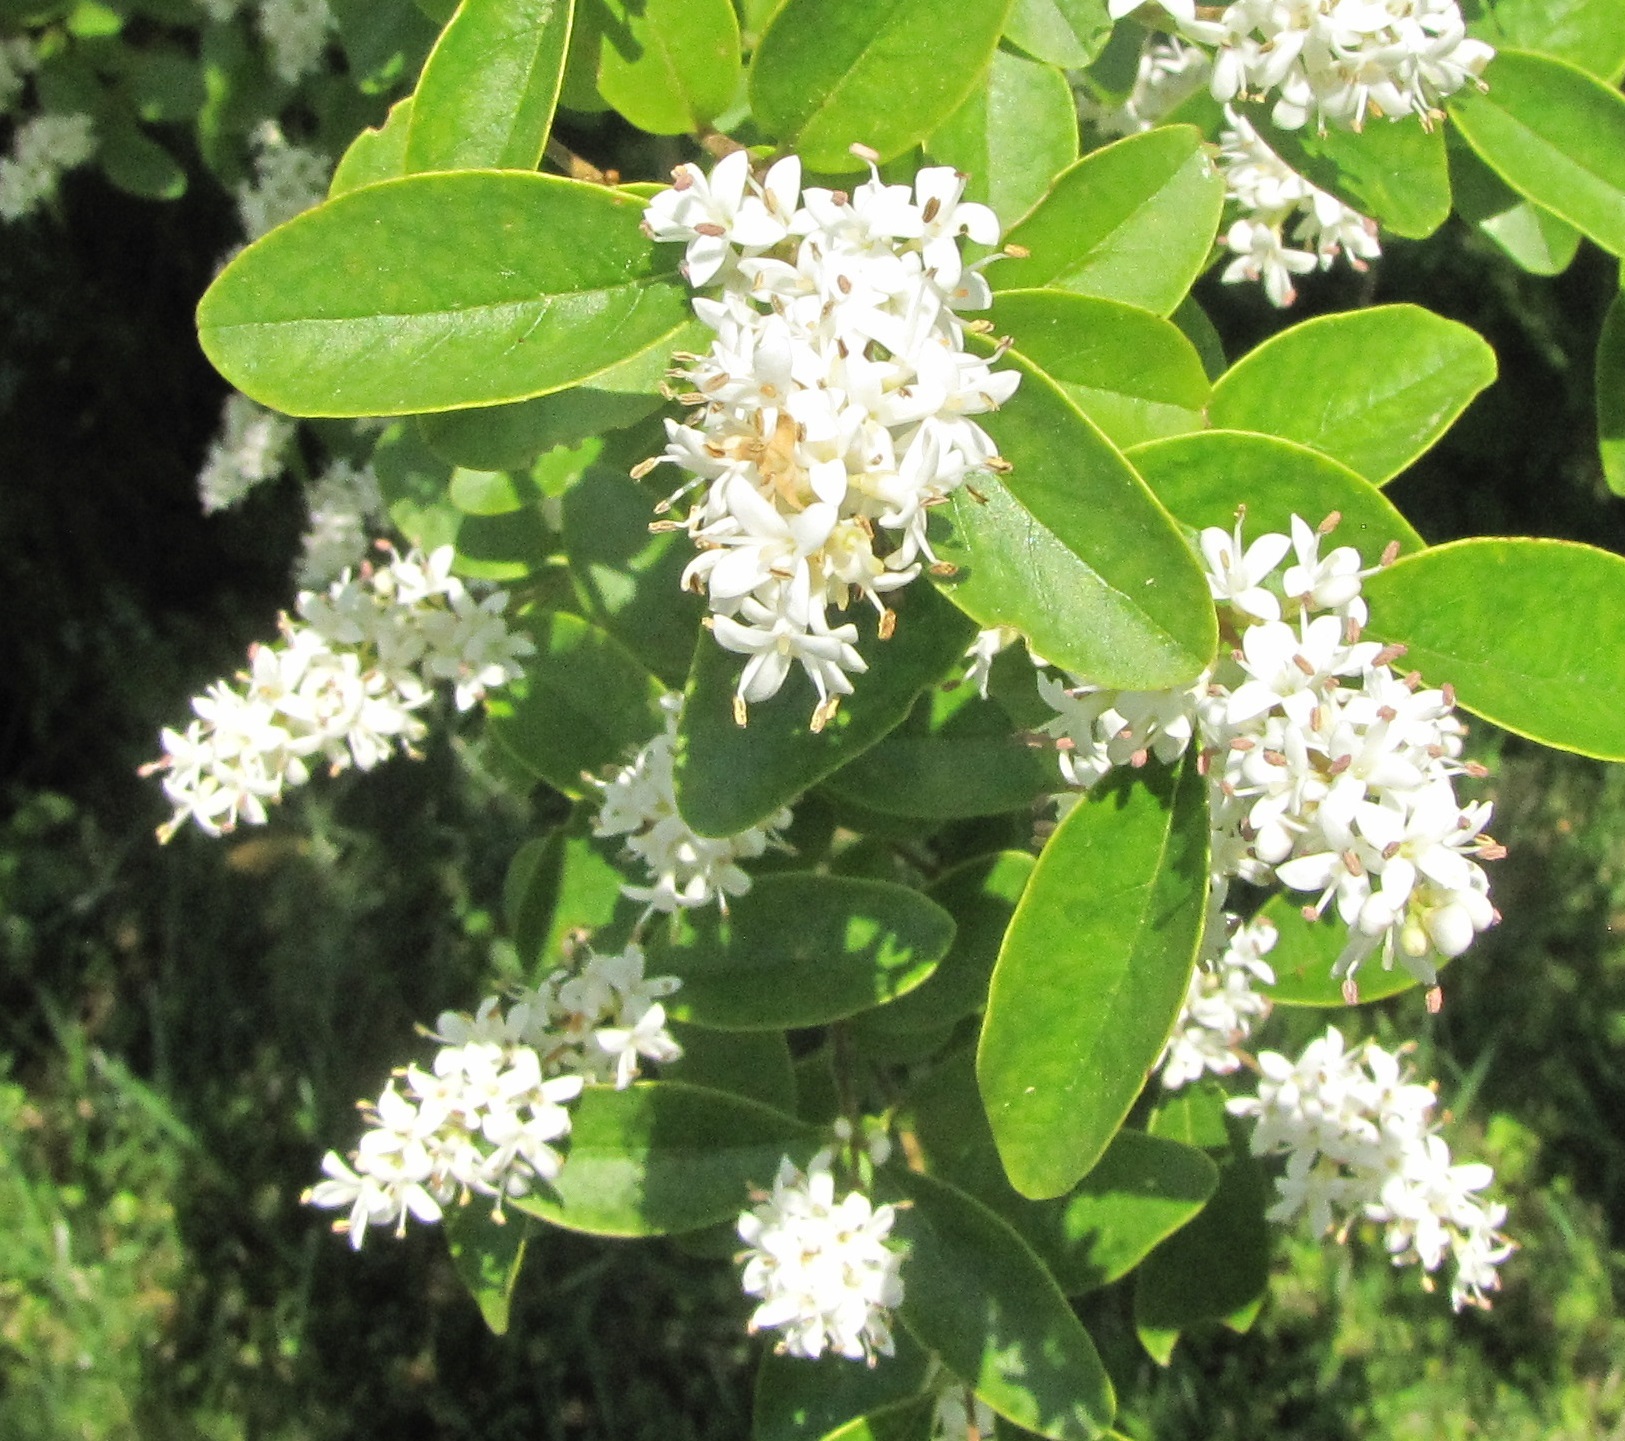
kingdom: Plantae
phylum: Tracheophyta
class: Magnoliopsida
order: Lamiales
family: Oleaceae
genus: Ligustrum
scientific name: Ligustrum sinense
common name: Chinese privet
